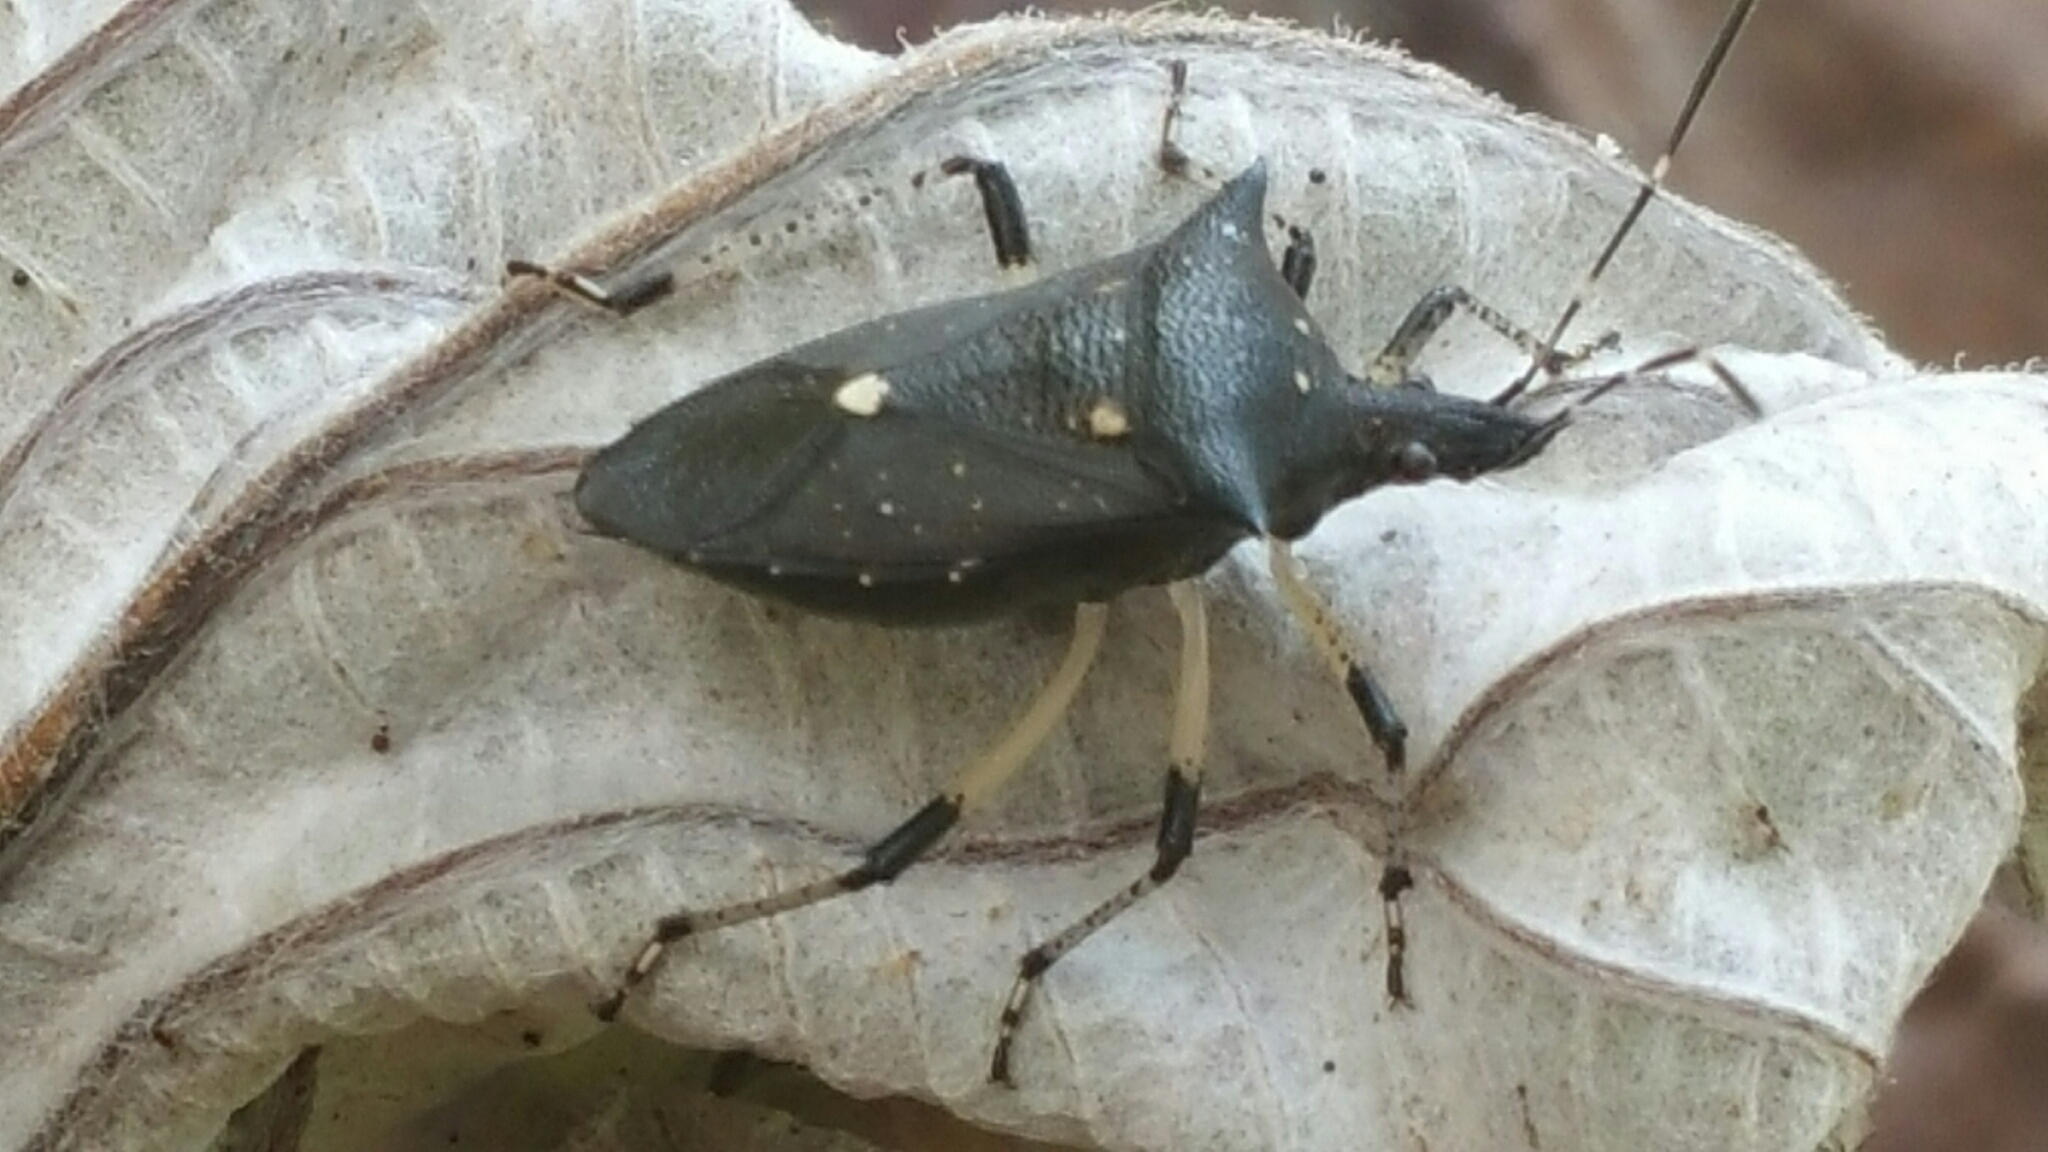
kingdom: Animalia
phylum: Arthropoda
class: Insecta
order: Hemiptera
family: Pentatomidae
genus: Proxys
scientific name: Proxys punctulatus
